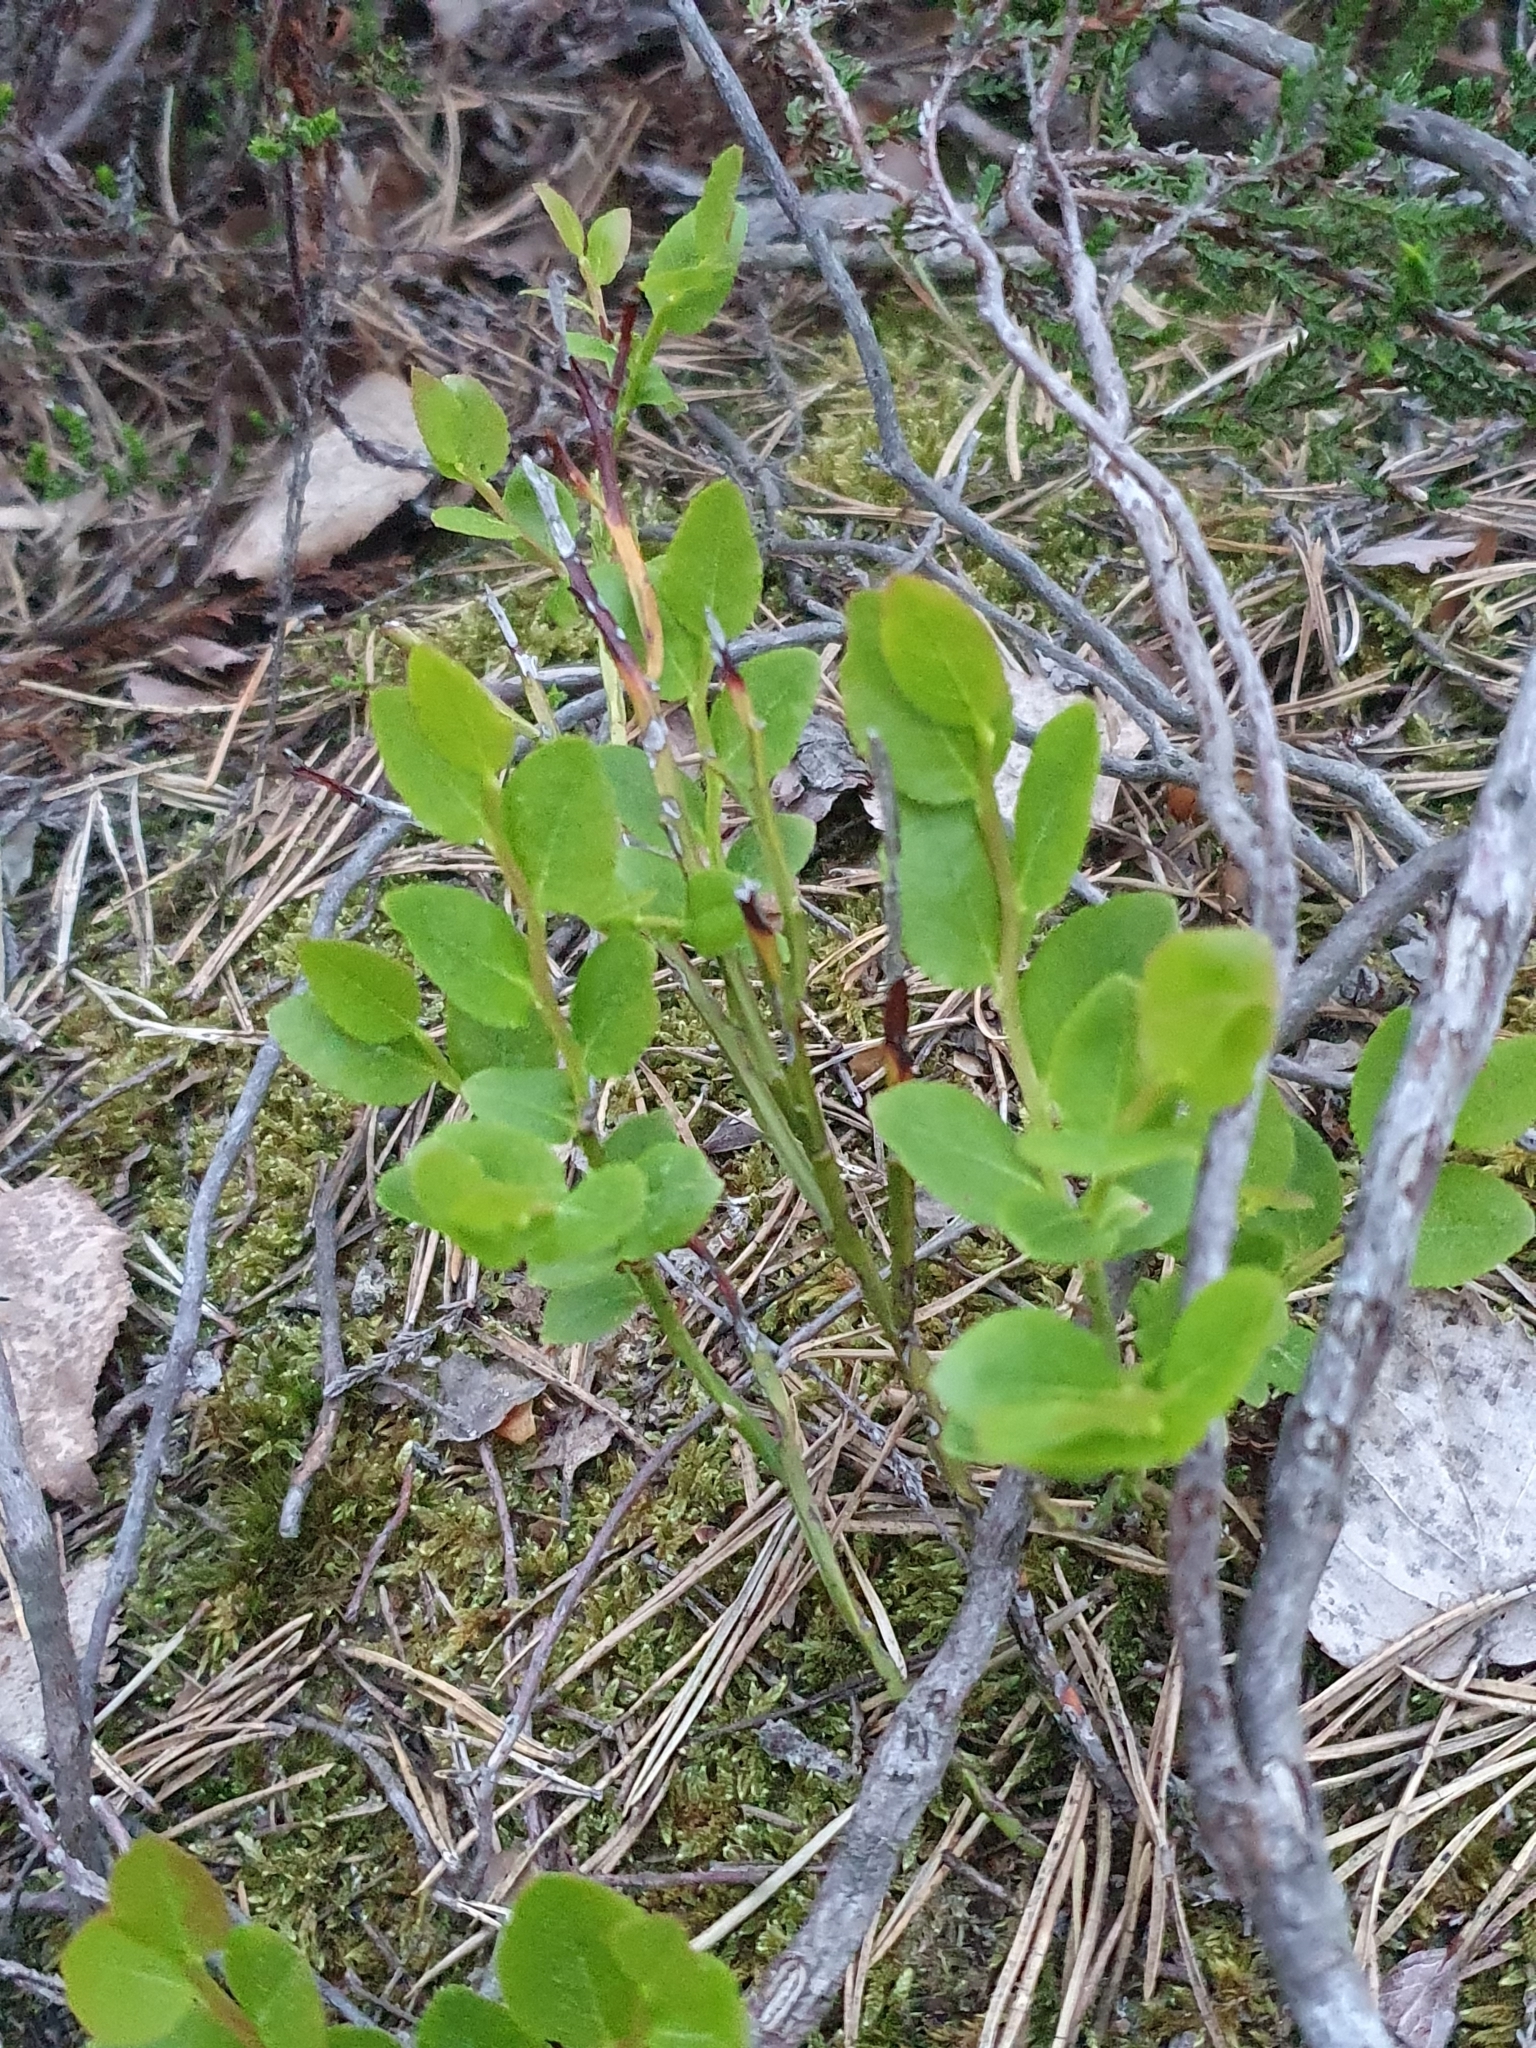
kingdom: Plantae
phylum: Tracheophyta
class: Magnoliopsida
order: Ericales
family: Ericaceae
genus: Vaccinium
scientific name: Vaccinium myrtillus
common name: Bilberry
